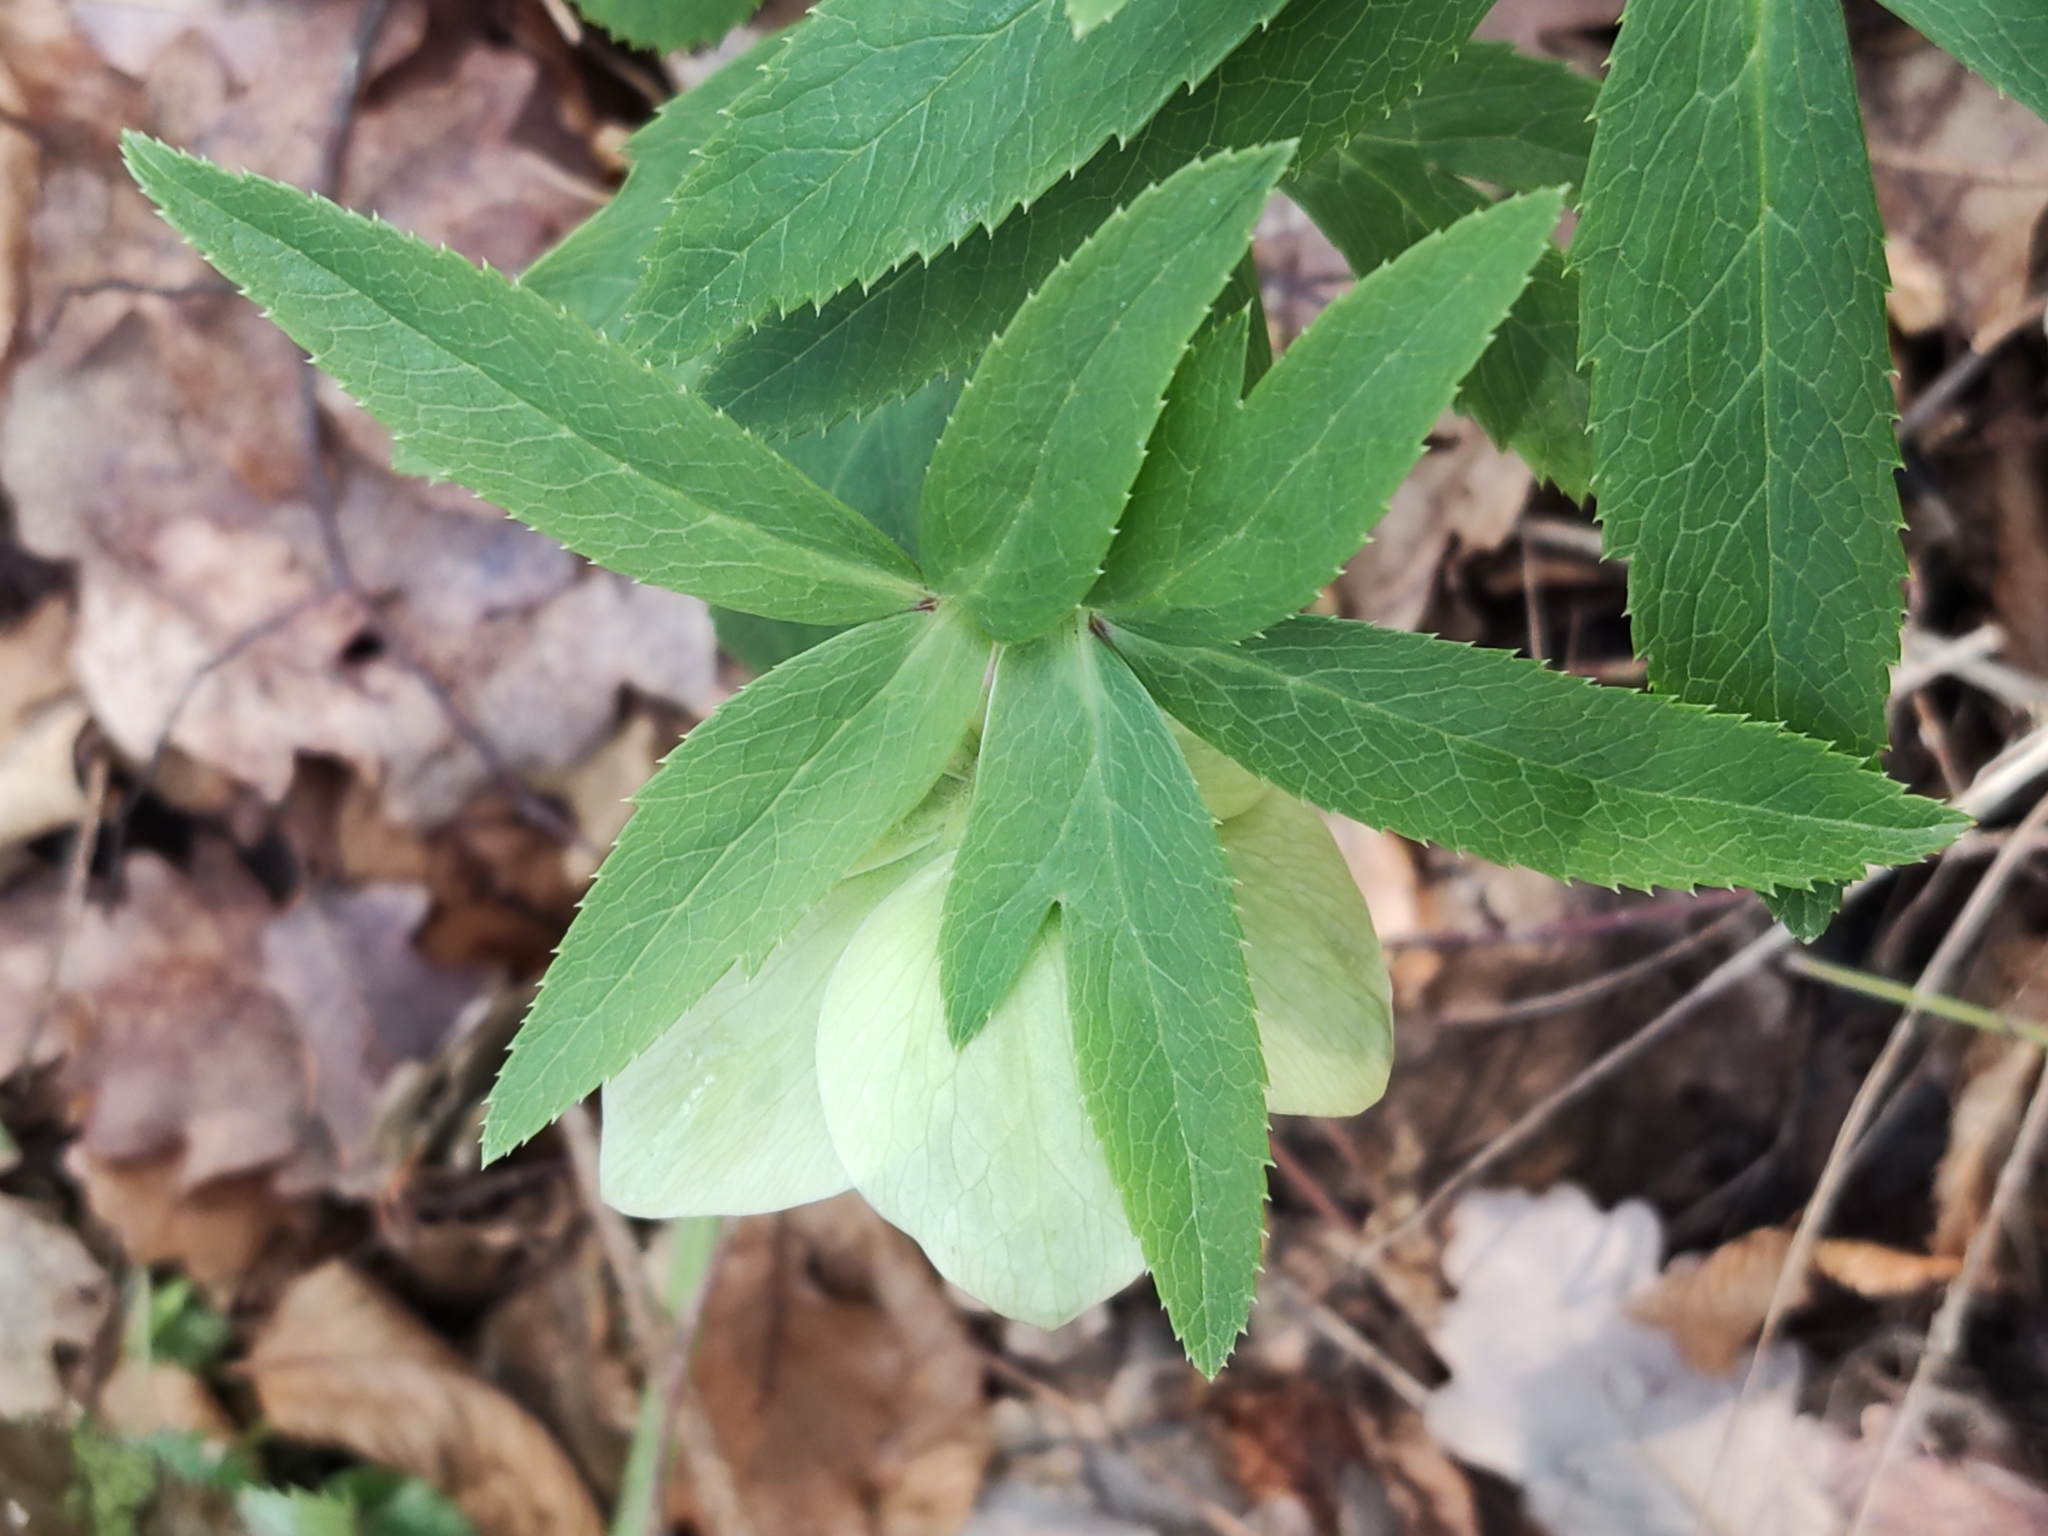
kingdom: Plantae
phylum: Tracheophyta
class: Magnoliopsida
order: Ranunculales
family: Ranunculaceae
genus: Helleborus
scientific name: Helleborus viridis
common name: Green hellebore
